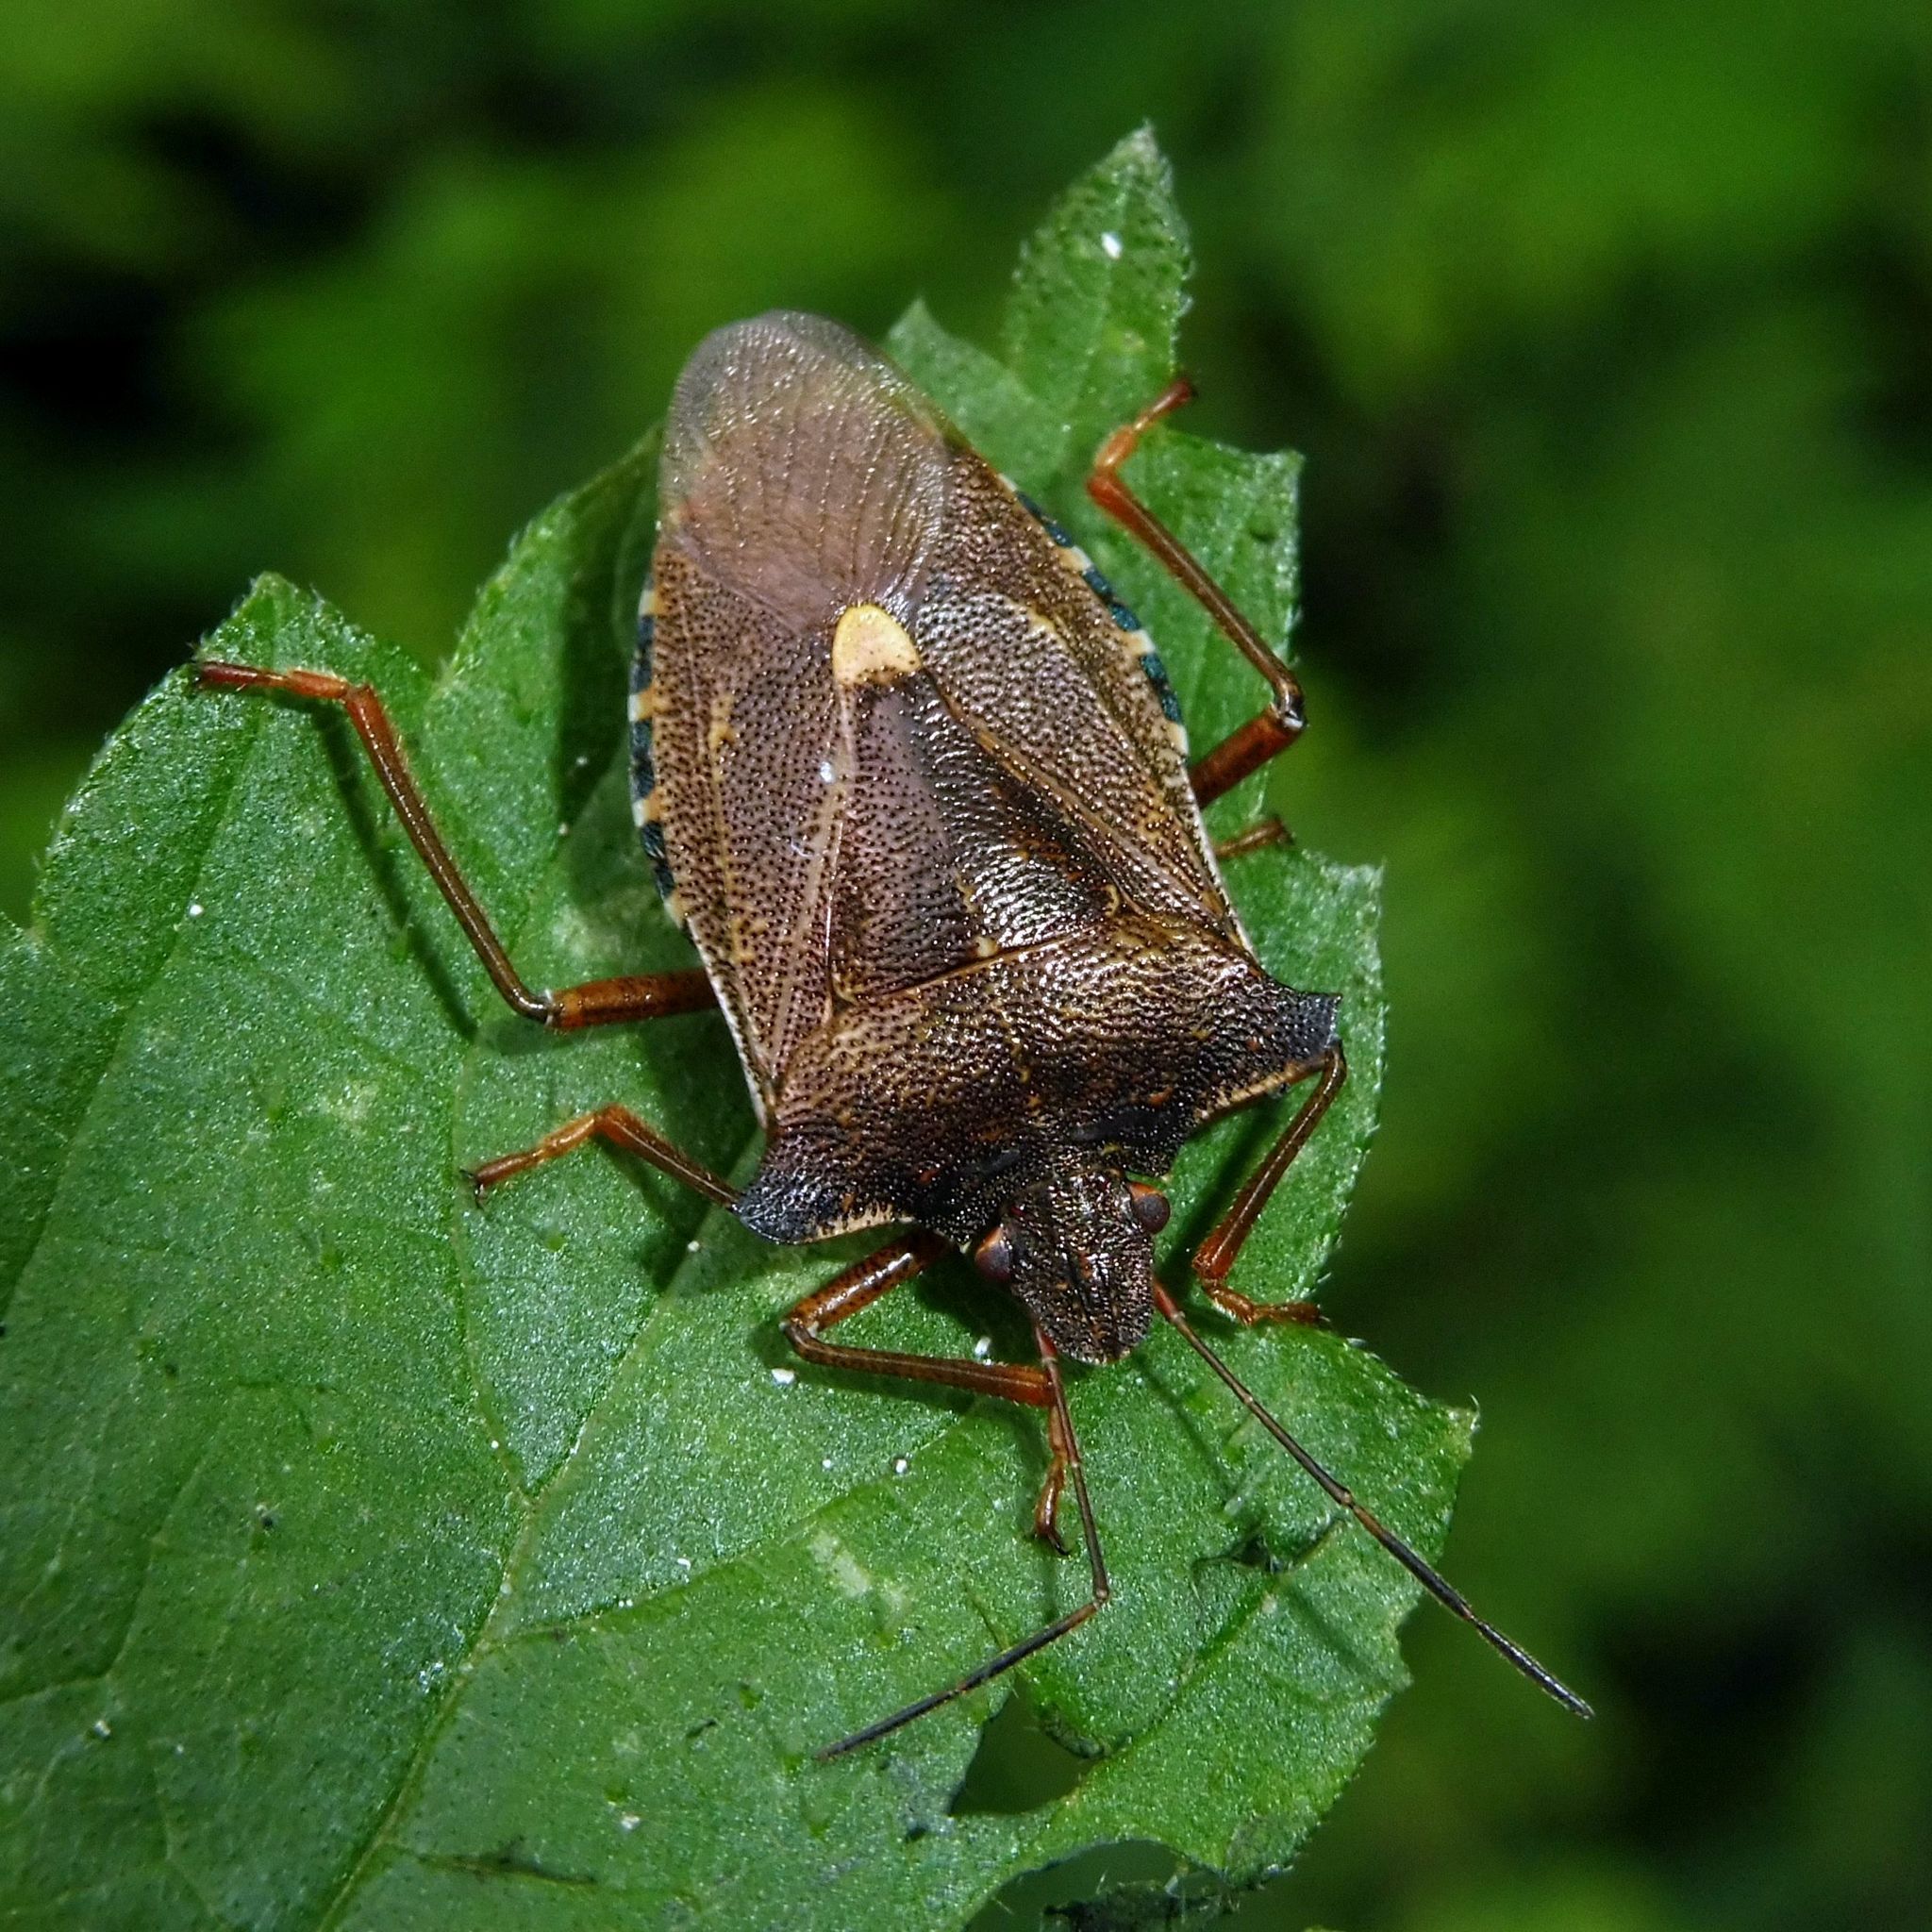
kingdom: Animalia
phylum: Arthropoda
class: Insecta
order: Hemiptera
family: Pentatomidae
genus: Pentatoma
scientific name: Pentatoma rufipes
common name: Forest bug
